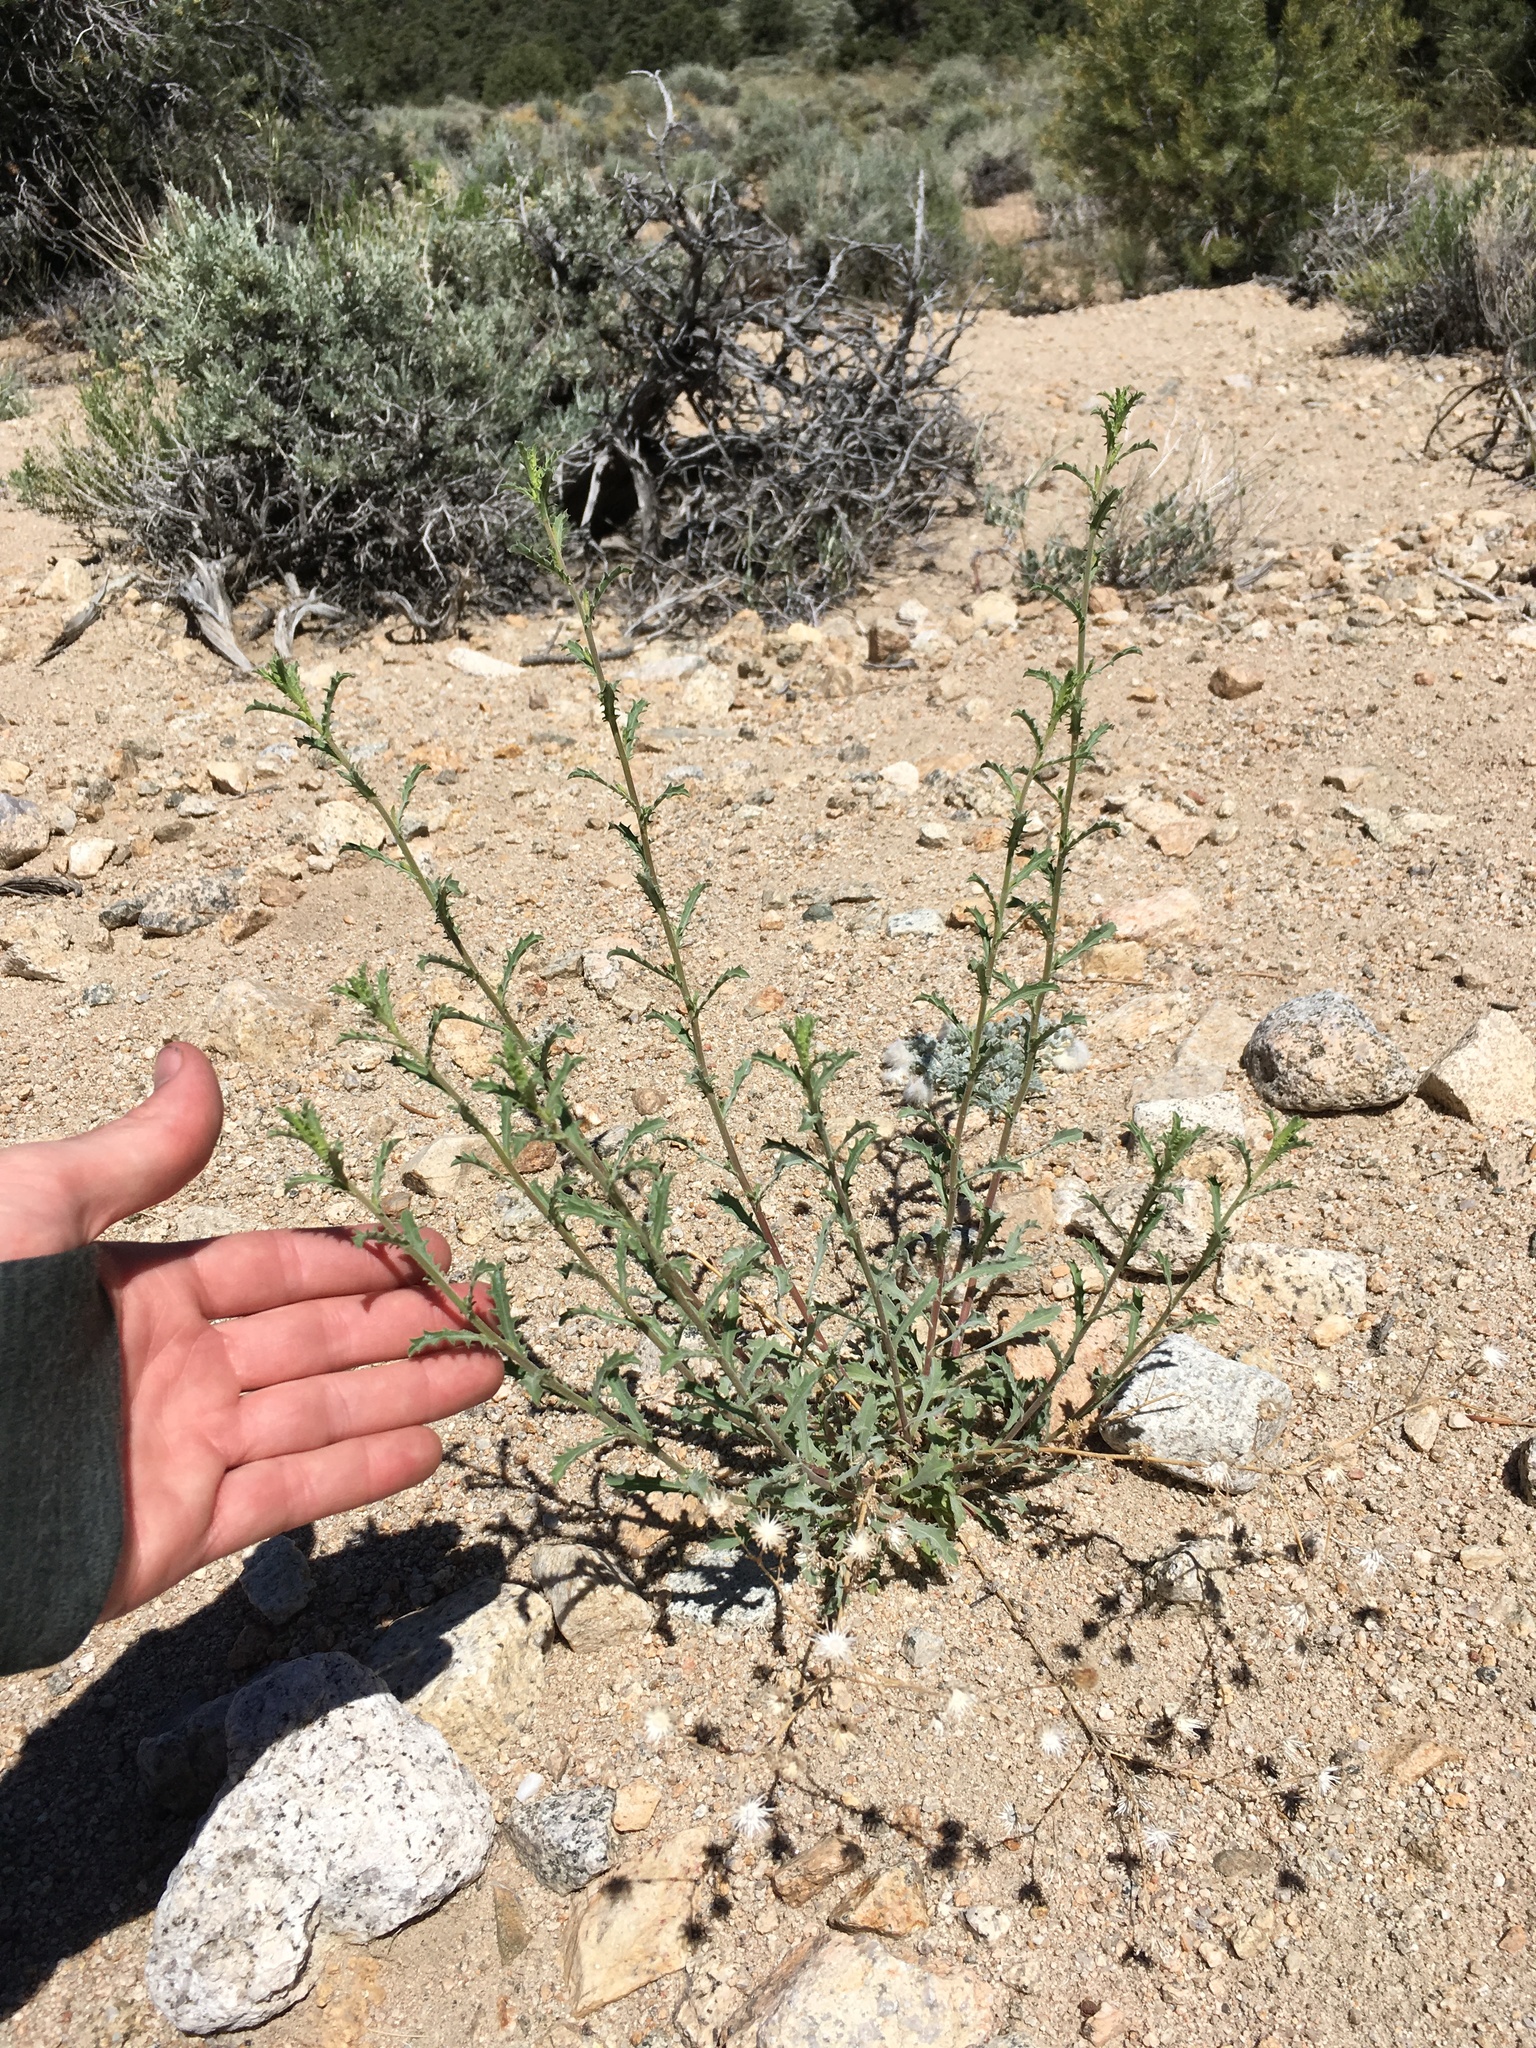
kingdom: Plantae
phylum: Tracheophyta
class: Magnoliopsida
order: Asterales
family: Asteraceae
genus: Dieteria
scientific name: Dieteria canescens
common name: Hoary-aster
